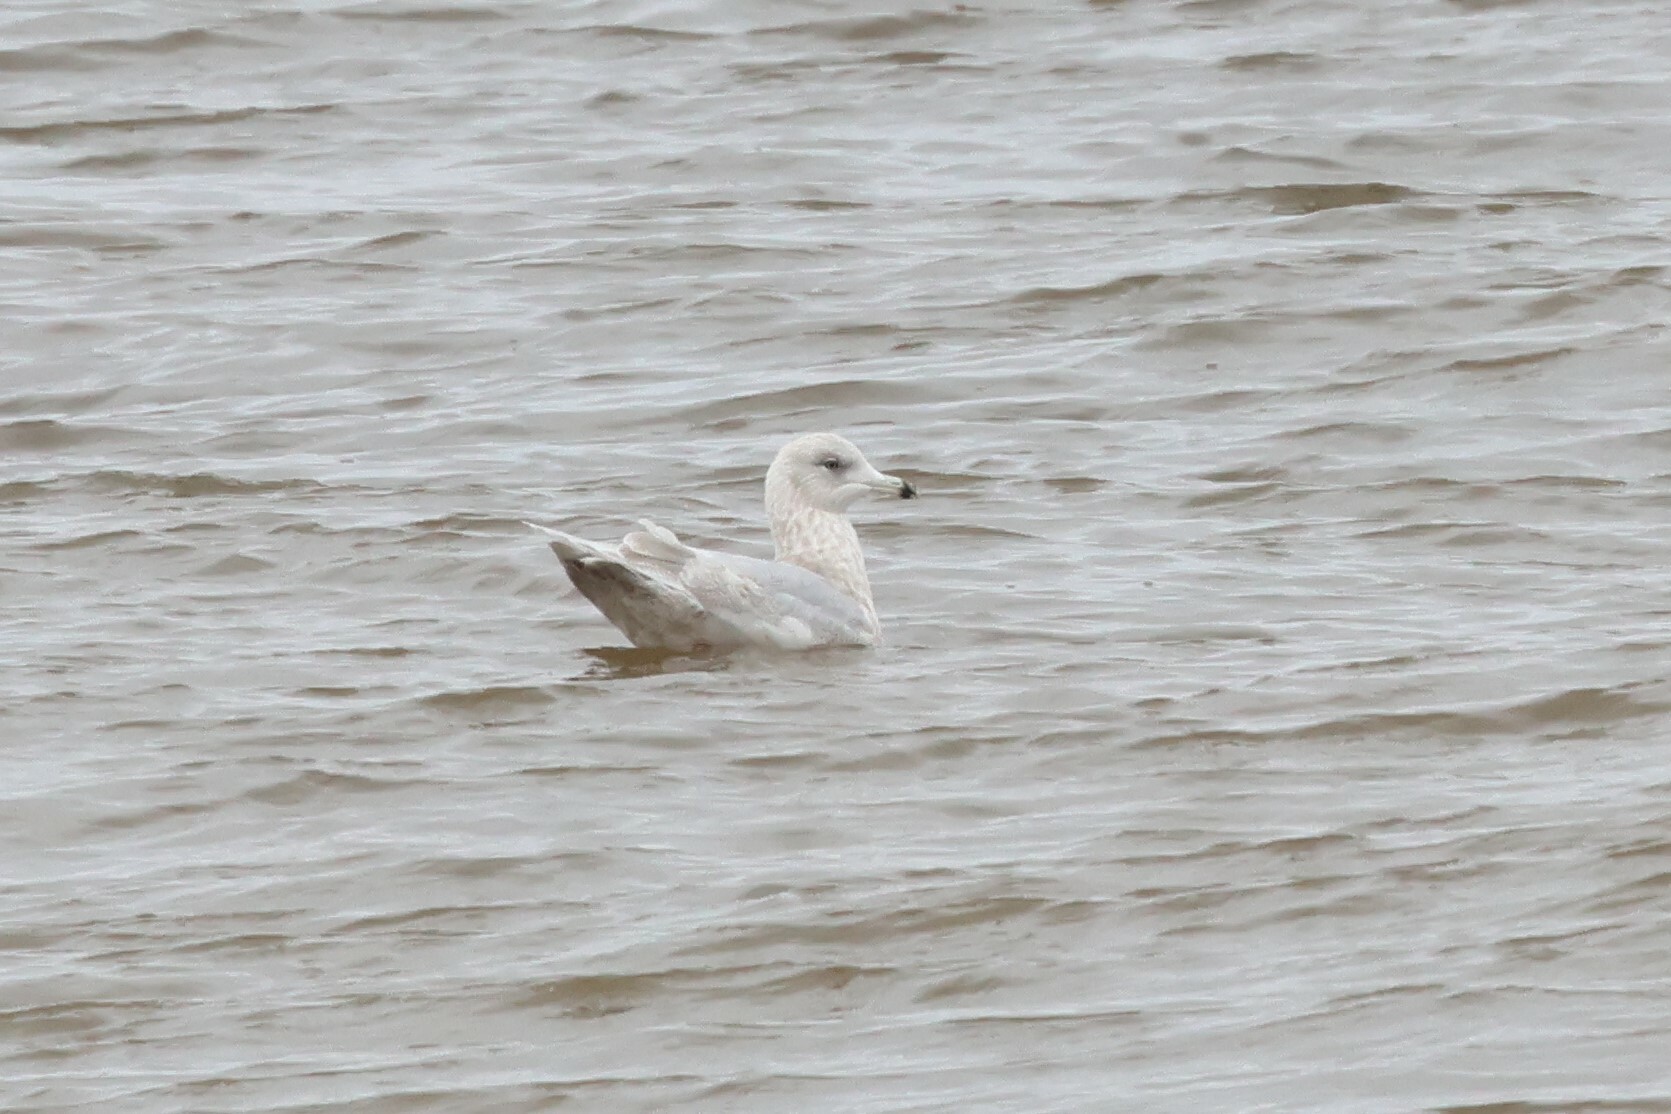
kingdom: Animalia
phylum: Chordata
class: Aves
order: Charadriiformes
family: Laridae
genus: Larus
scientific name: Larus glaucoides
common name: Iceland gull
